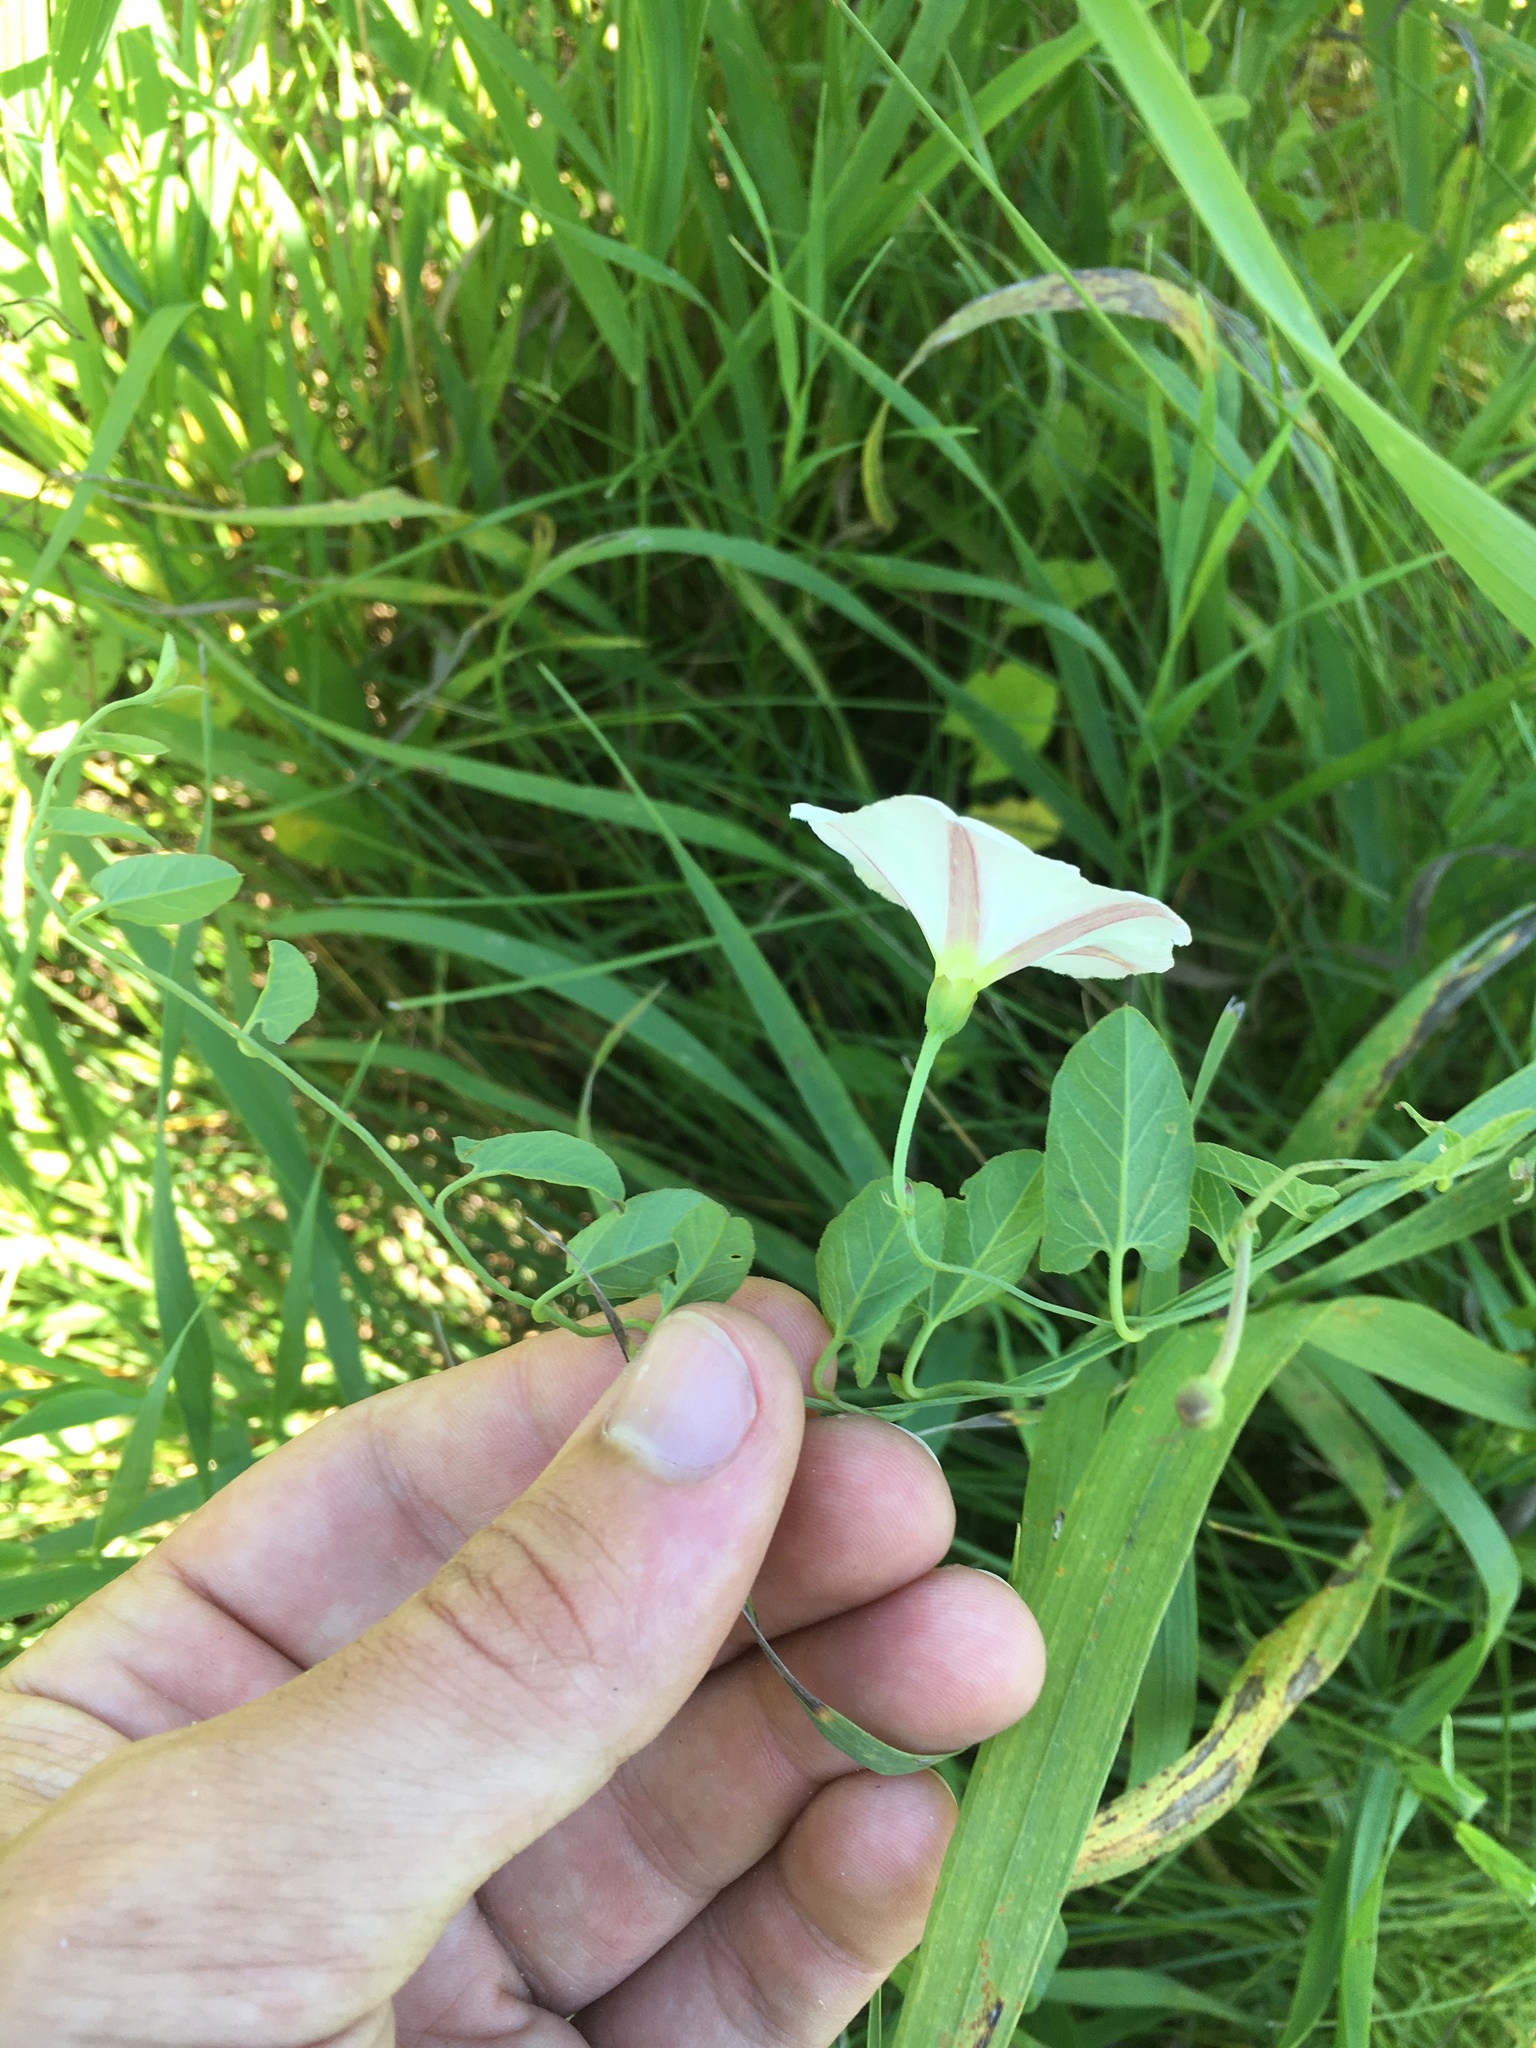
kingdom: Plantae
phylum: Tracheophyta
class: Magnoliopsida
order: Solanales
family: Convolvulaceae
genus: Convolvulus
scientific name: Convolvulus arvensis
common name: Field bindweed
